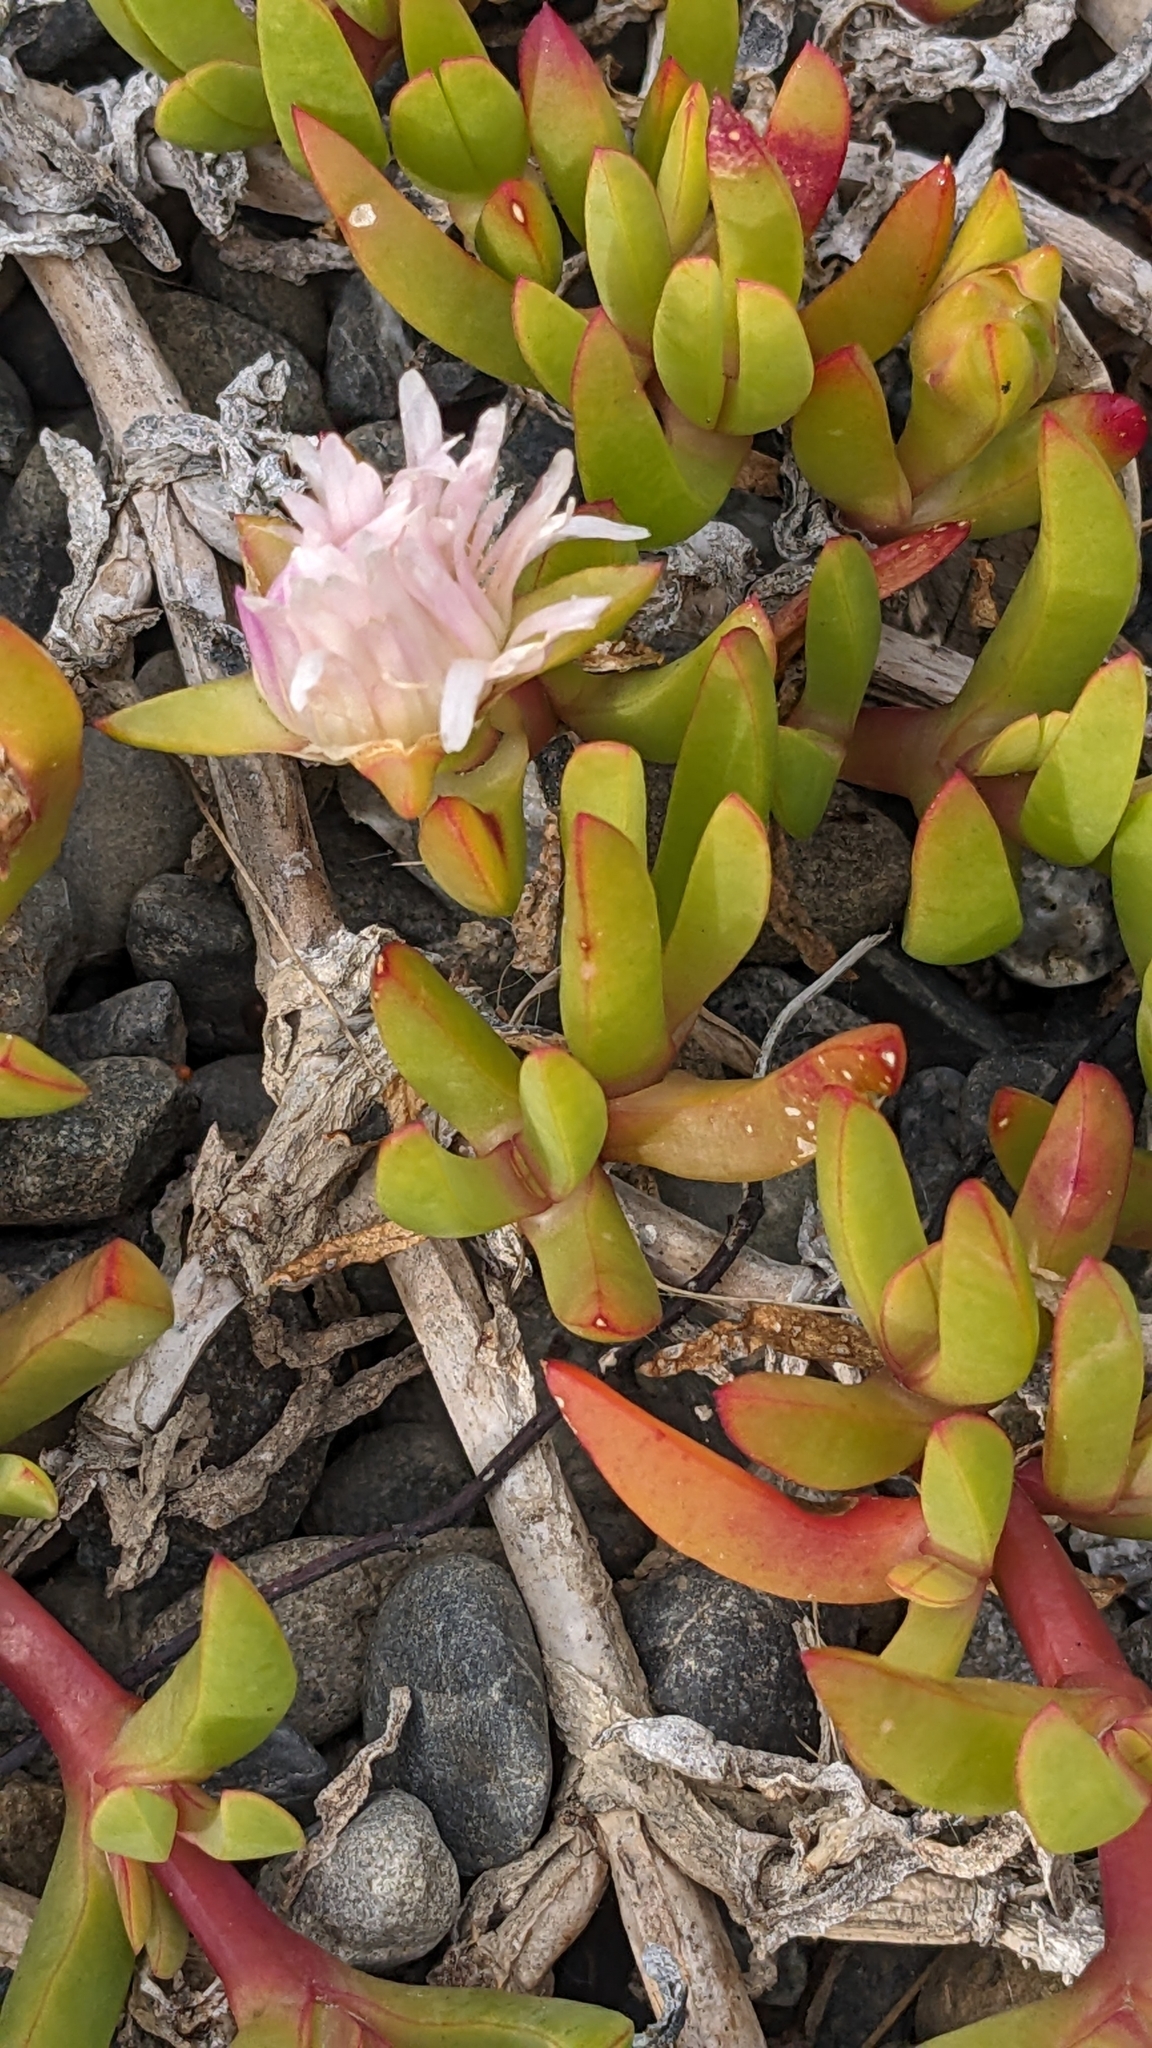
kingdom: Plantae
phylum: Tracheophyta
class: Magnoliopsida
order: Caryophyllales
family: Aizoaceae
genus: Disphyma
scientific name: Disphyma australe
